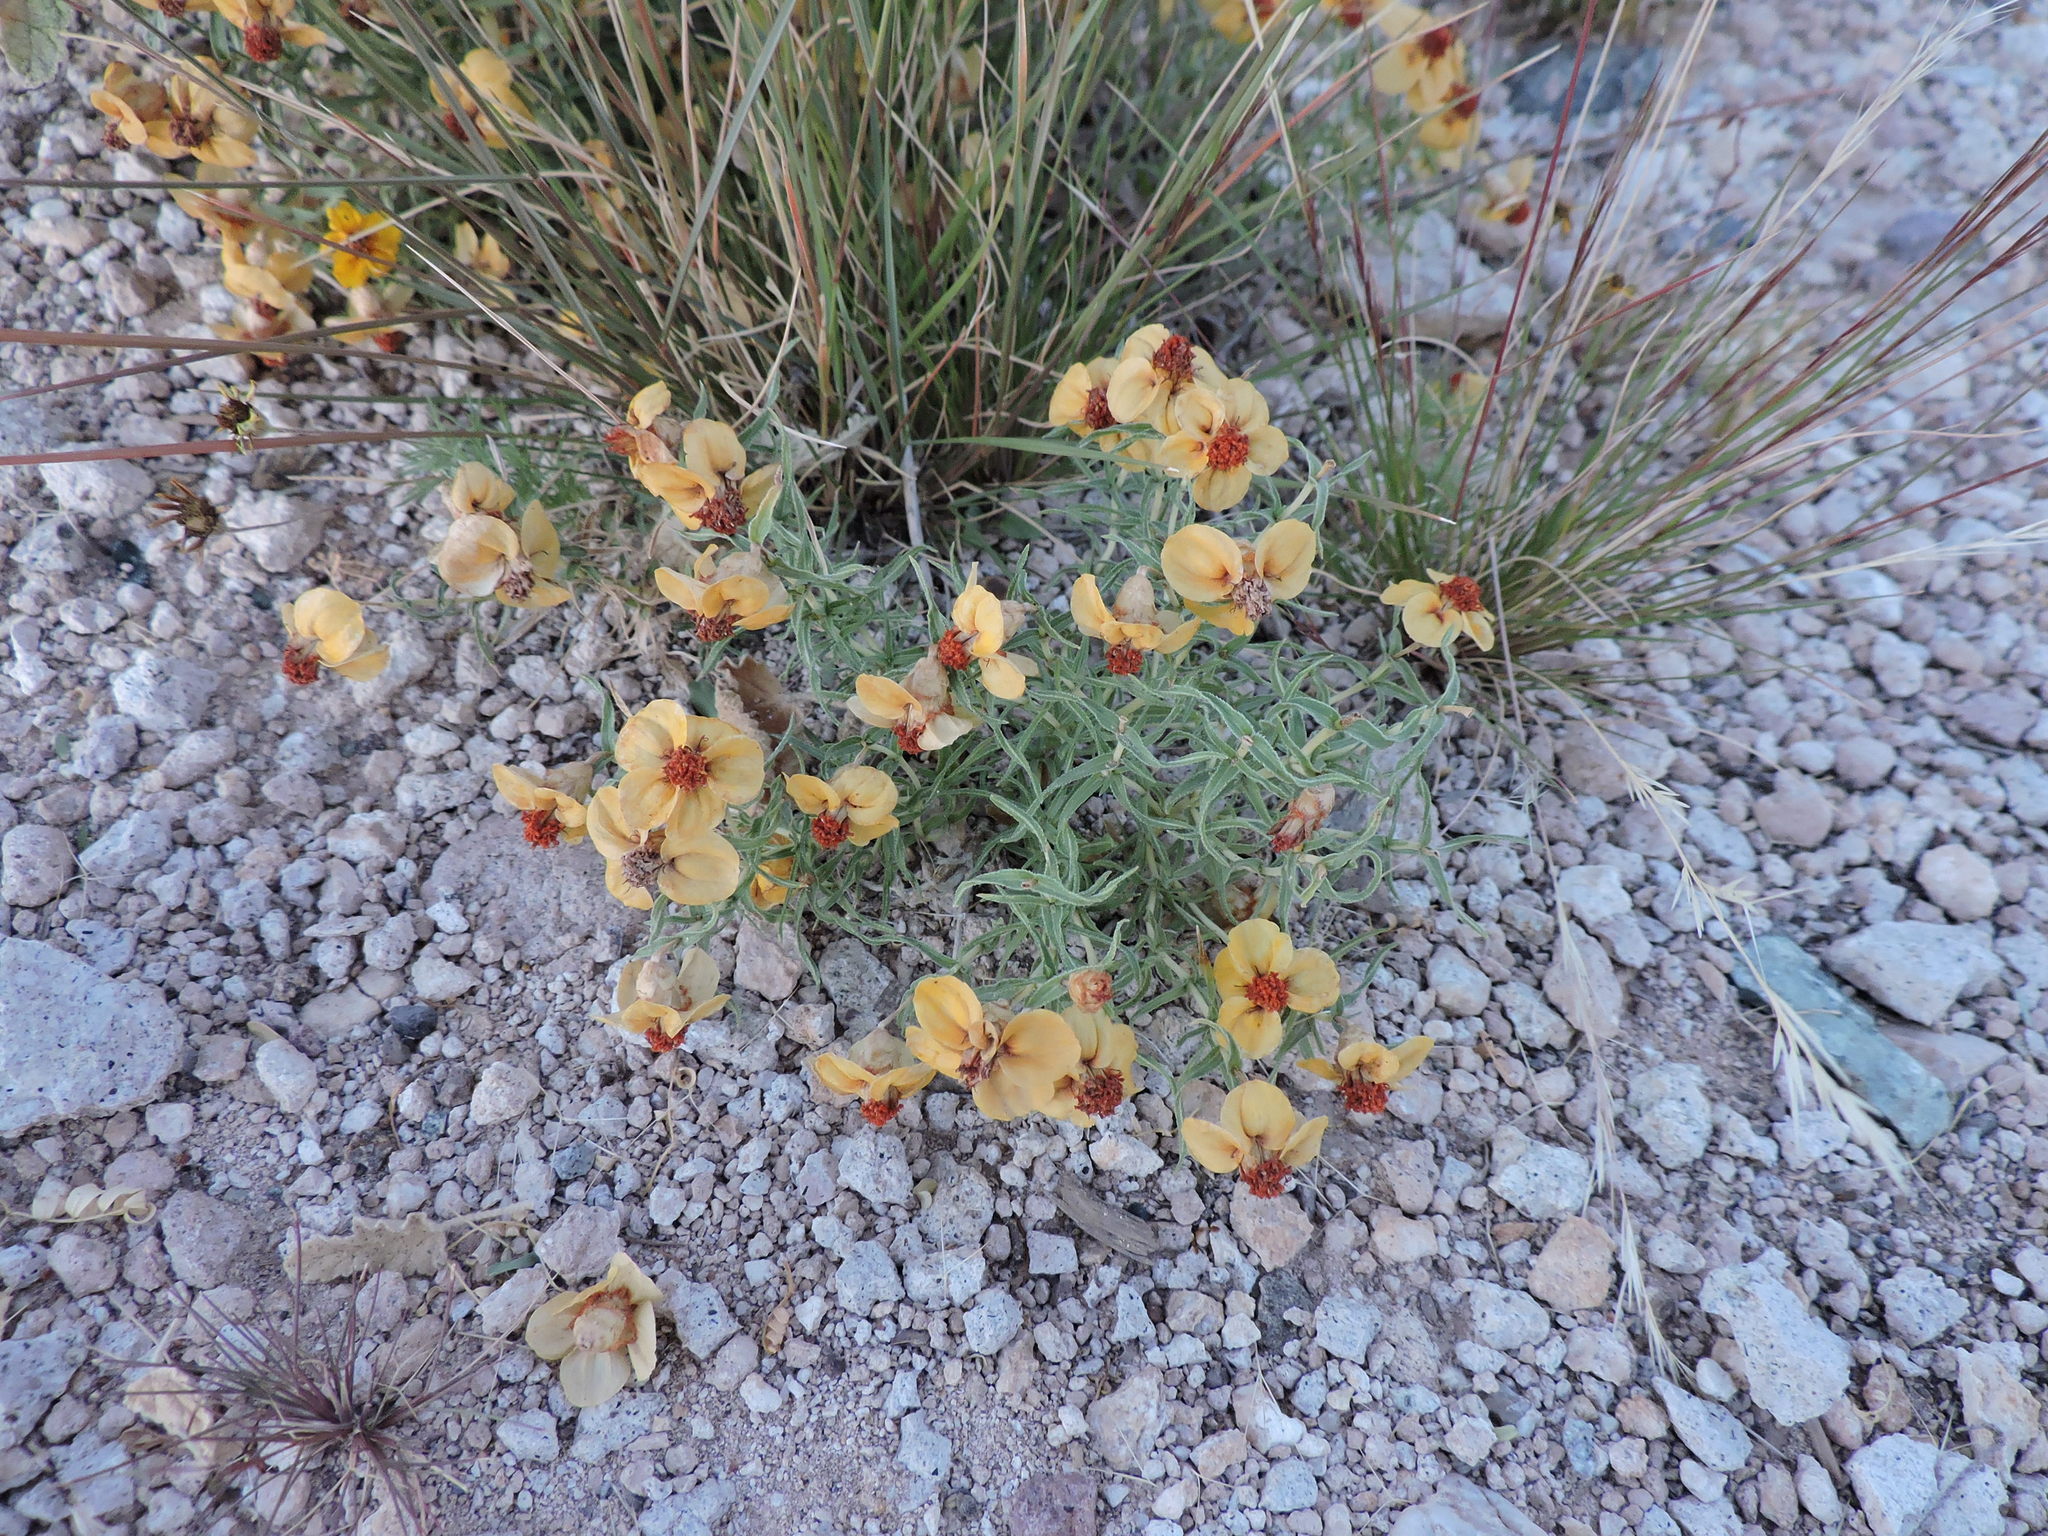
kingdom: Plantae
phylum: Tracheophyta
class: Magnoliopsida
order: Asterales
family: Asteraceae
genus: Zinnia
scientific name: Zinnia grandiflora
